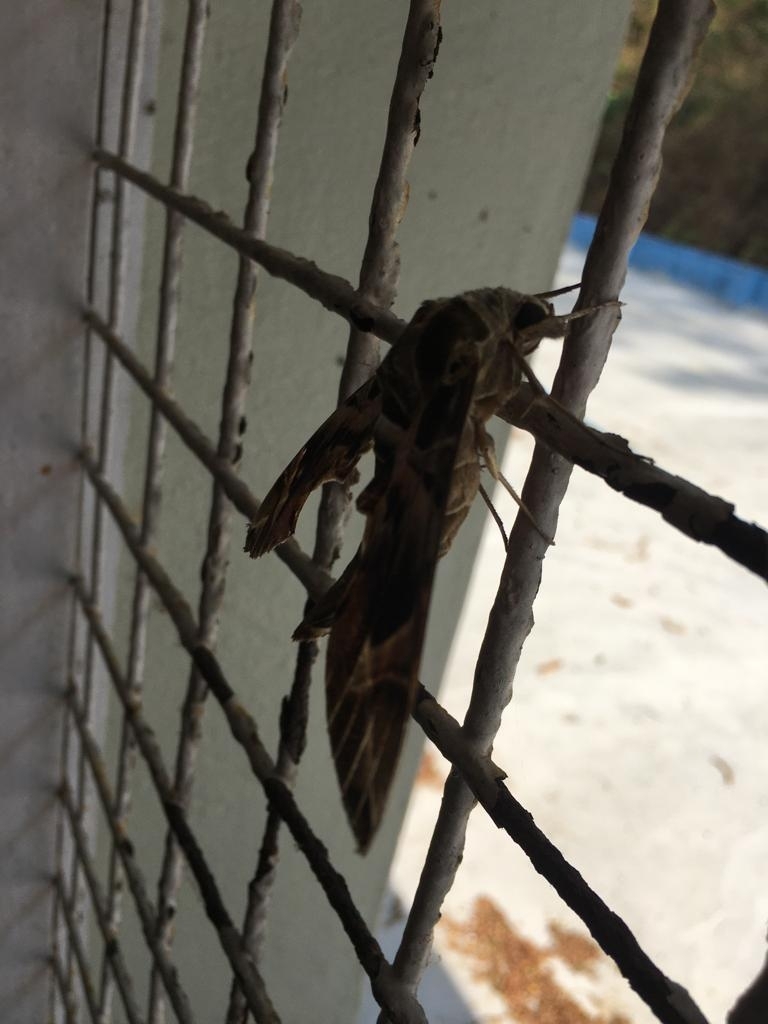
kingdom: Animalia
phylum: Arthropoda
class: Insecta
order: Lepidoptera
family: Sphingidae
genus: Daphnis
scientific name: Daphnis nerii
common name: Oleander hawk-moth
